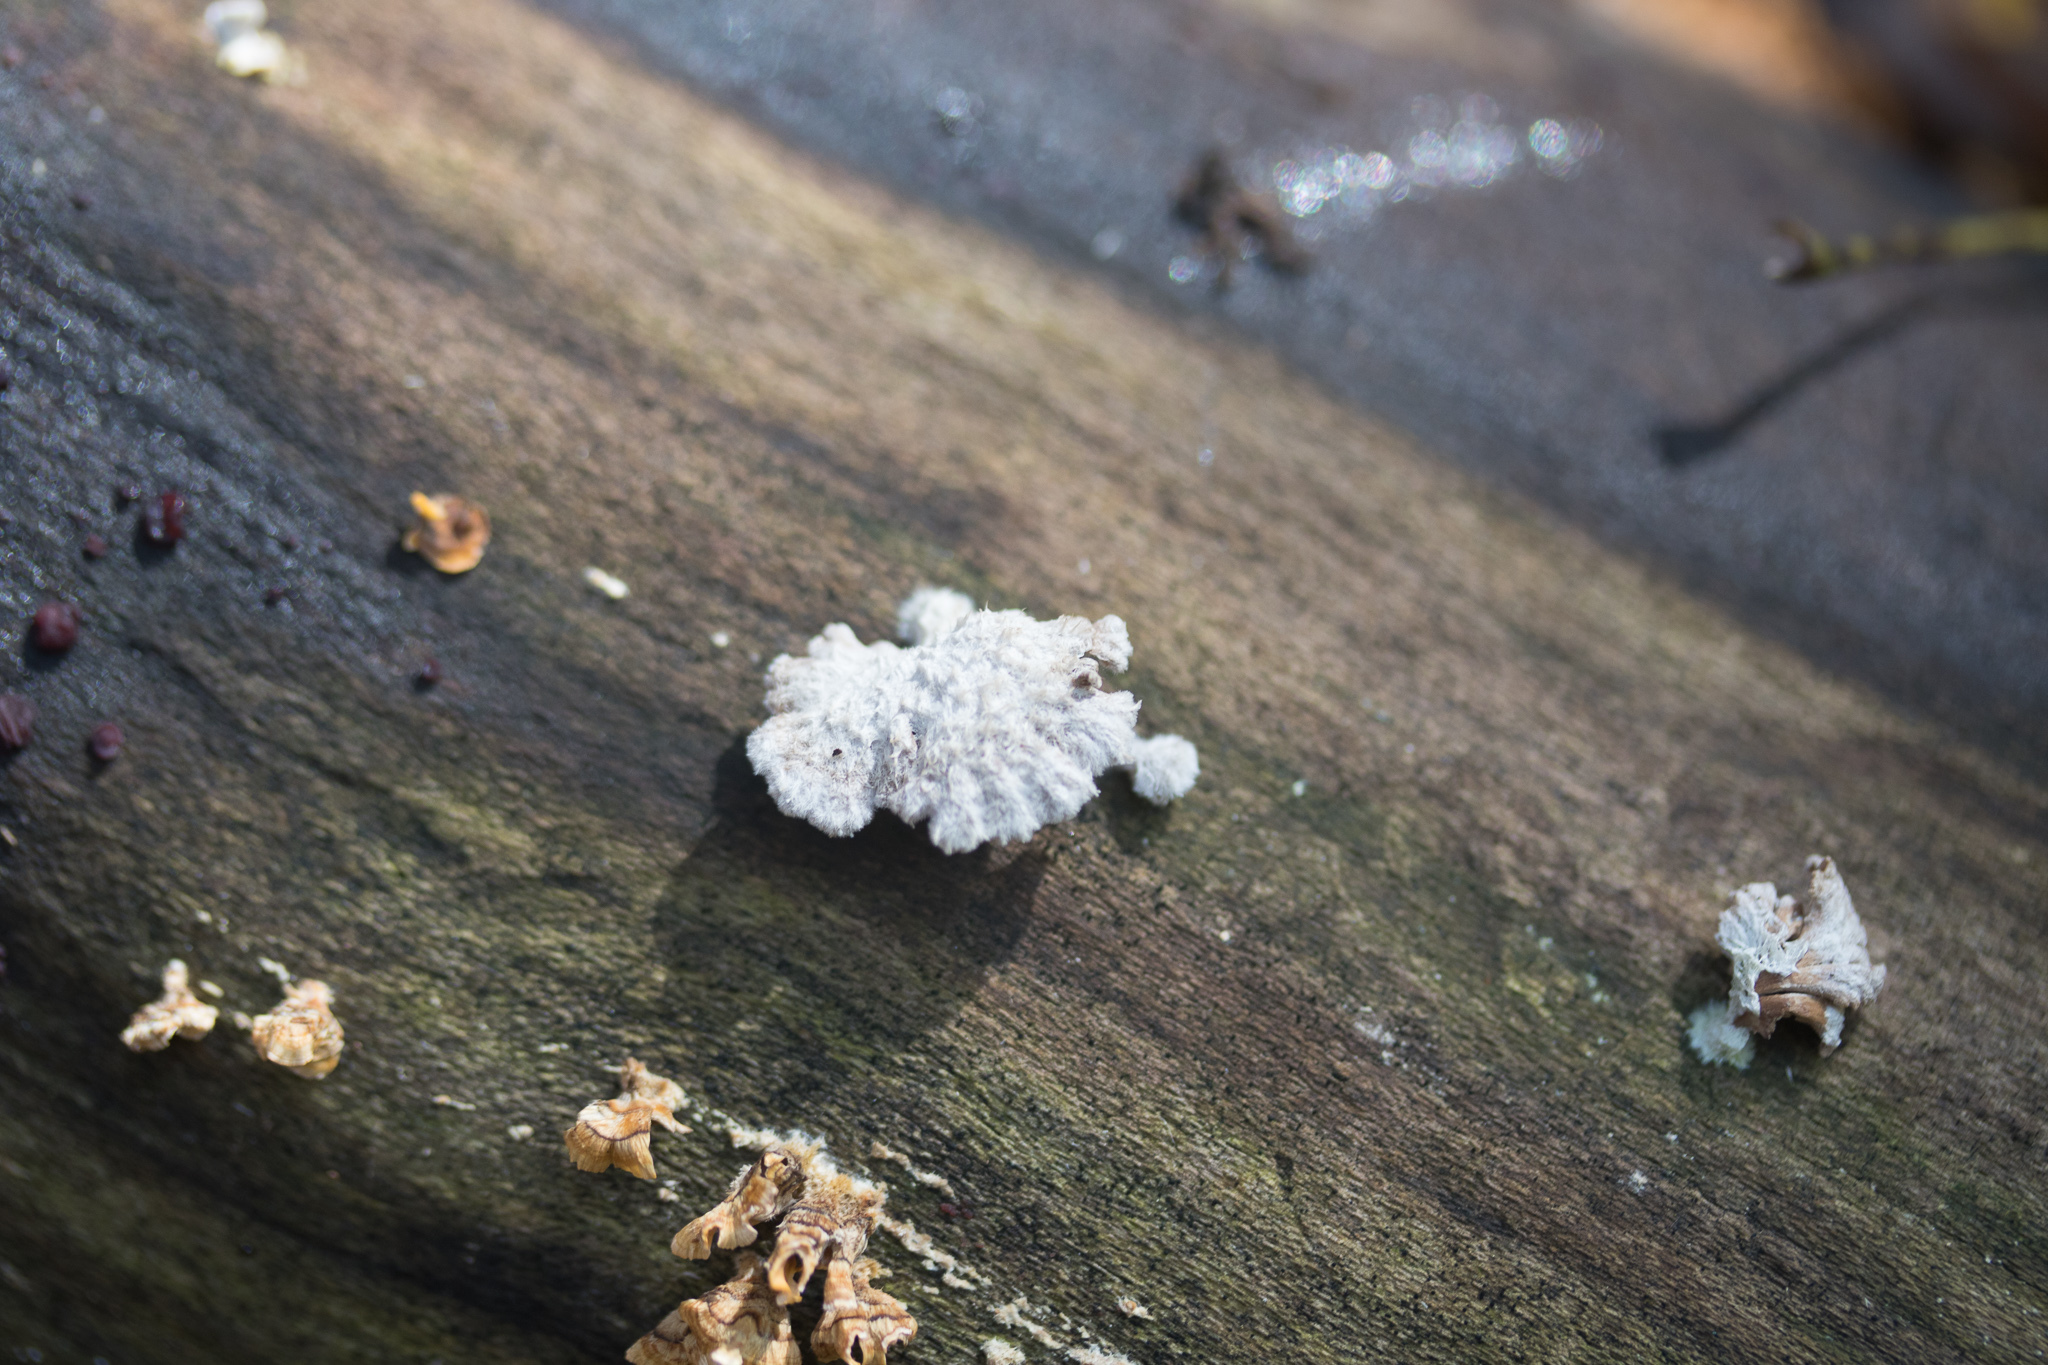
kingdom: Fungi
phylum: Basidiomycota
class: Agaricomycetes
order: Agaricales
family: Schizophyllaceae
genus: Schizophyllum
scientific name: Schizophyllum commune
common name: Common porecrust
